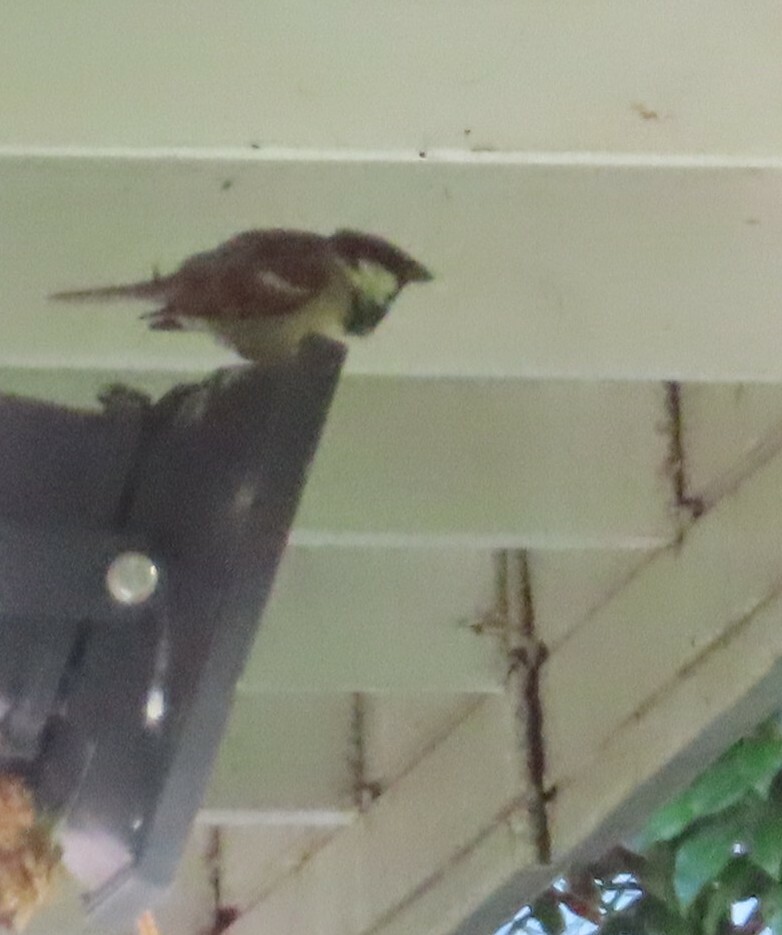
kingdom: Animalia
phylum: Chordata
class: Aves
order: Passeriformes
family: Passeridae
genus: Passer
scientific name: Passer domesticus
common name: House sparrow
